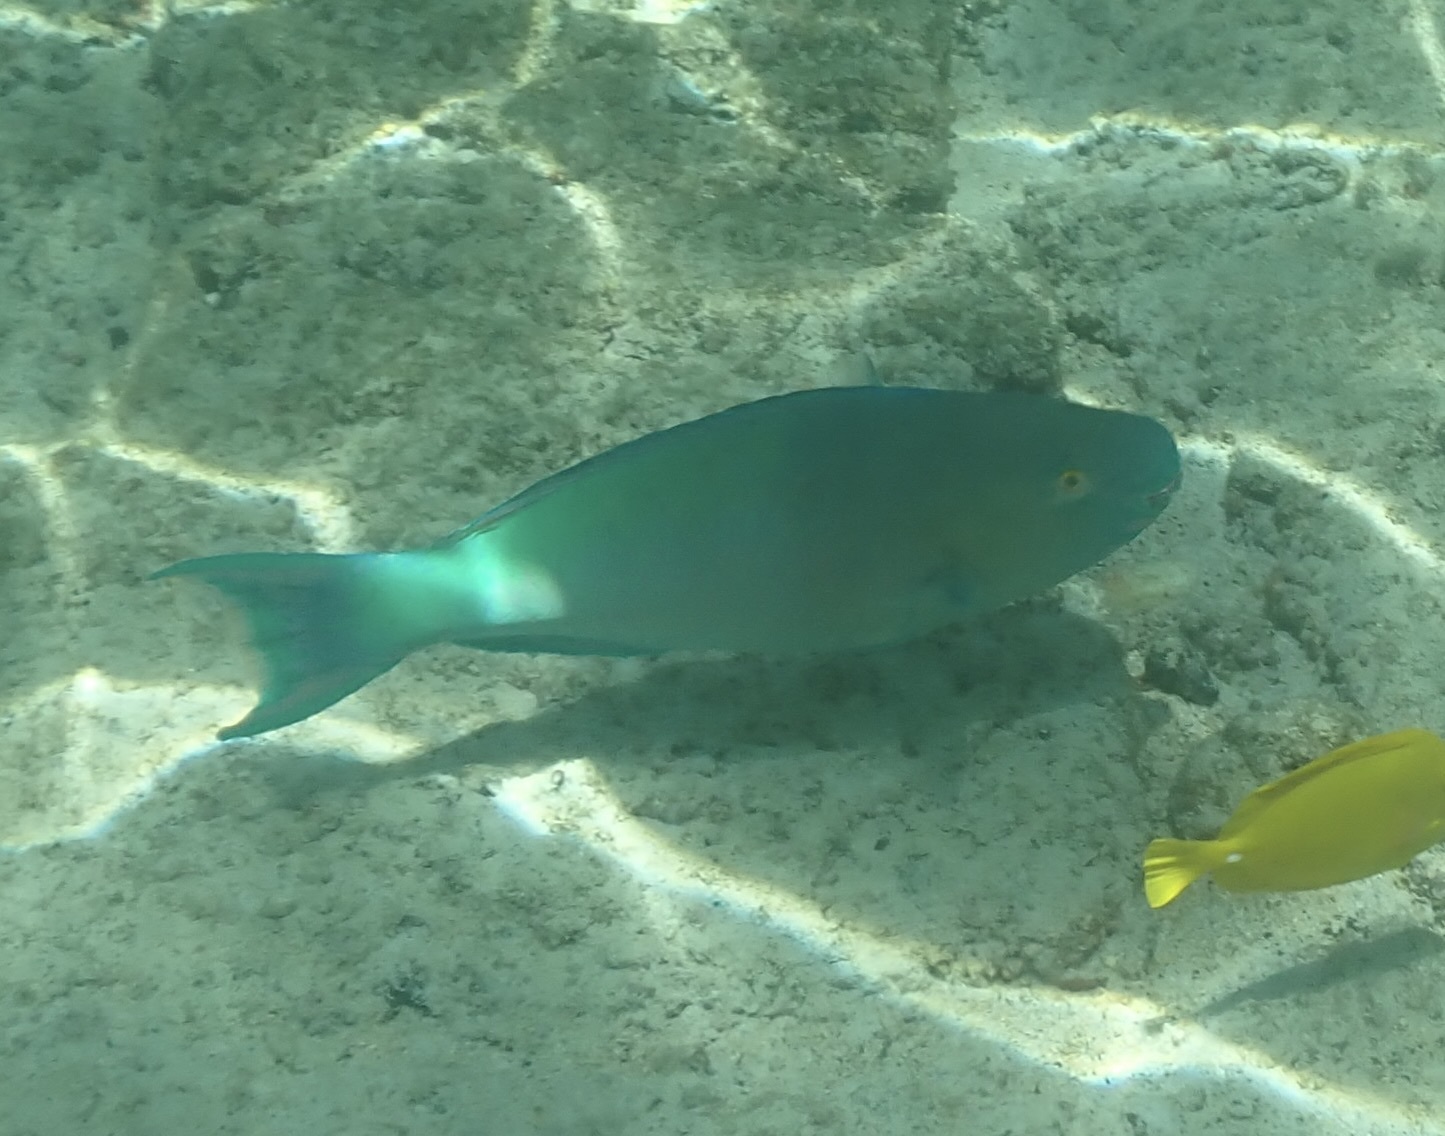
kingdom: Animalia
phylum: Chordata
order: Perciformes
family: Scaridae
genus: Scarus
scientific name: Scarus rubroviolaceus
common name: Ember parrotfish
